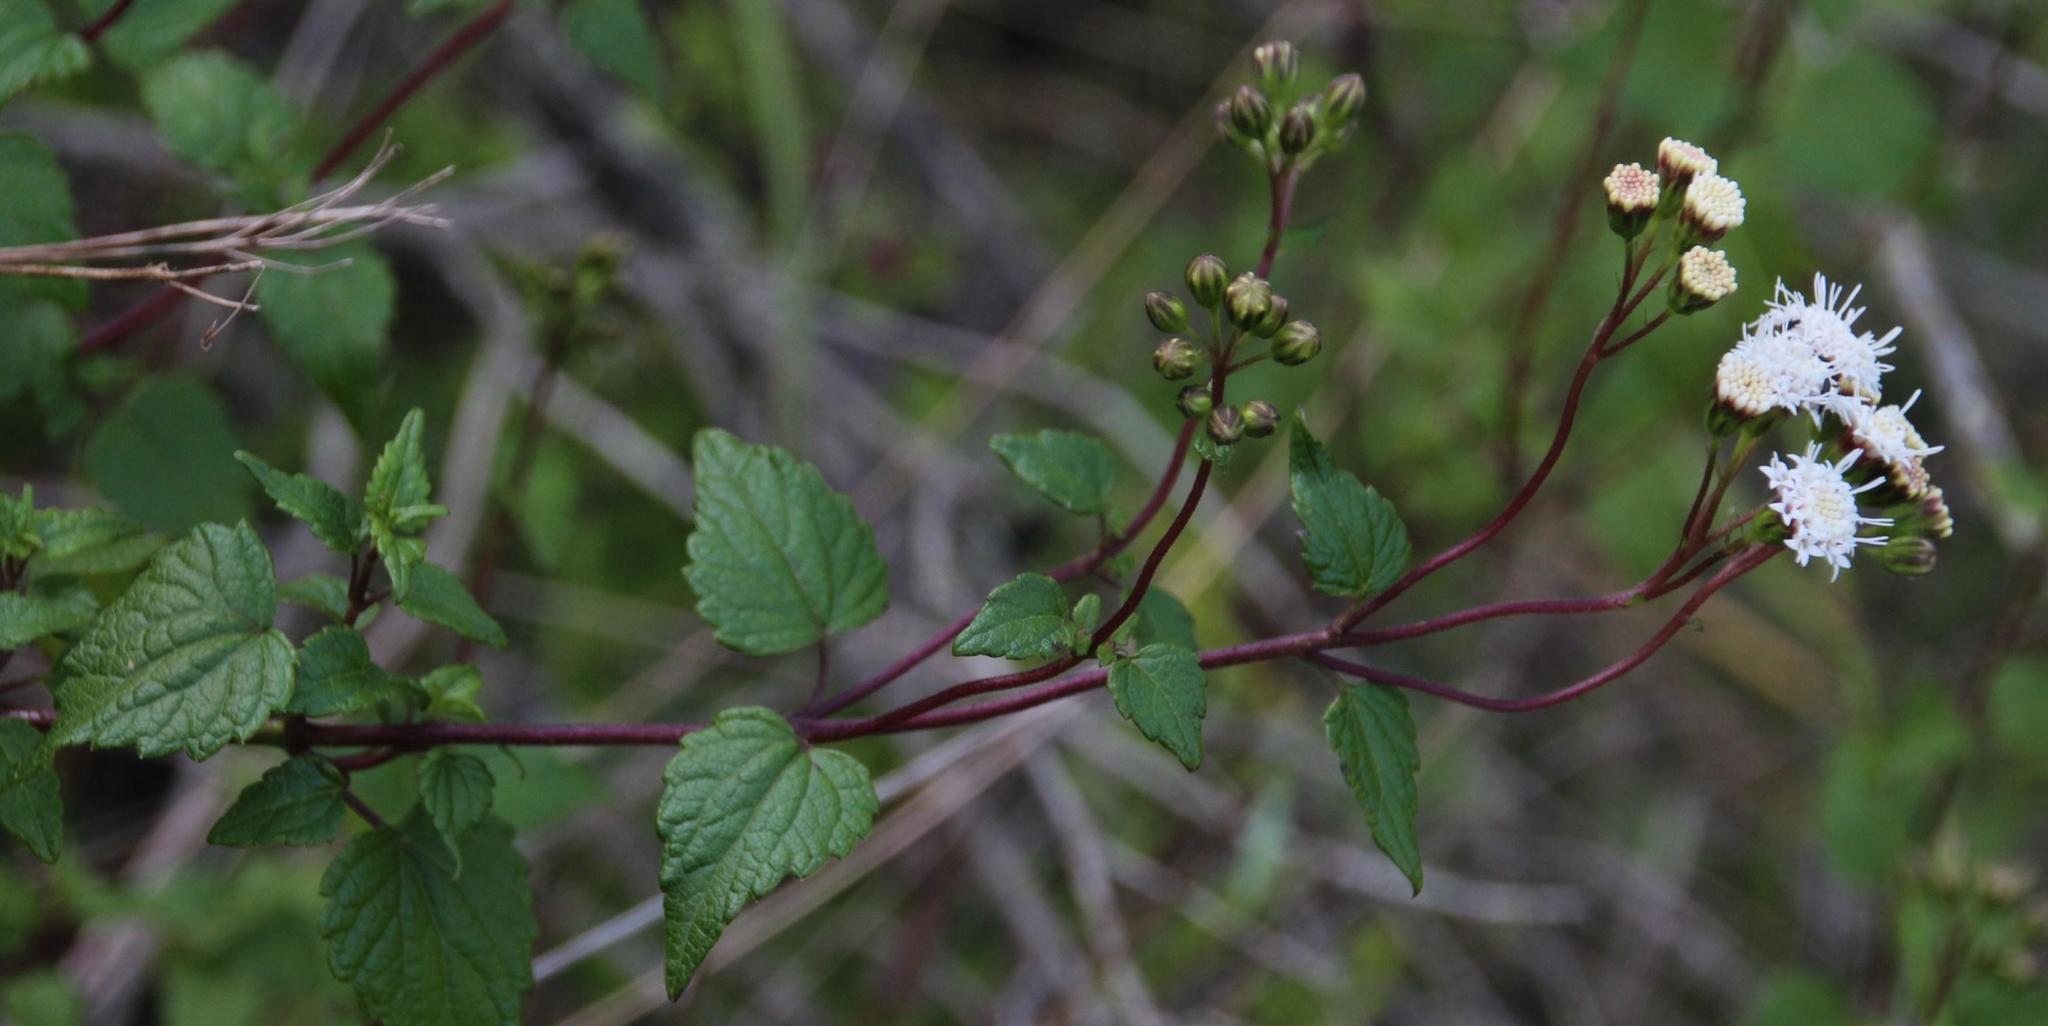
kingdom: Plantae
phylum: Tracheophyta
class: Magnoliopsida
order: Asterales
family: Asteraceae
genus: Ageratina
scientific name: Ageratina glechonophylla
